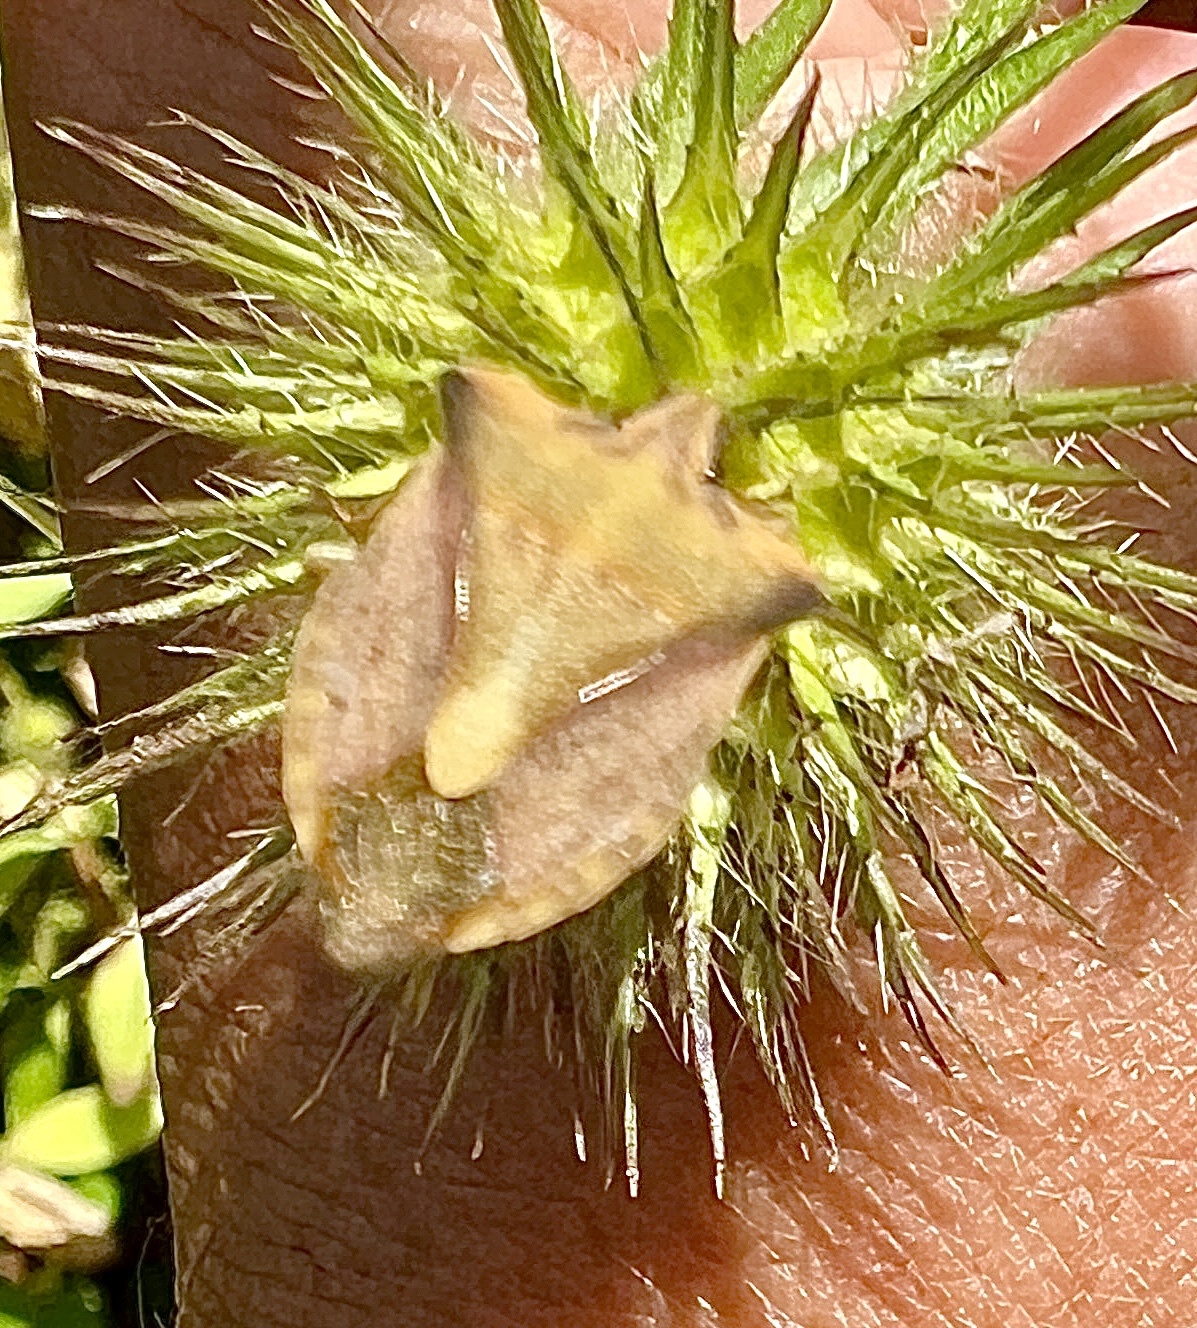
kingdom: Animalia
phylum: Arthropoda
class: Insecta
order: Hemiptera
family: Pentatomidae
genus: Carpocoris
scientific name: Carpocoris fuscispinus
